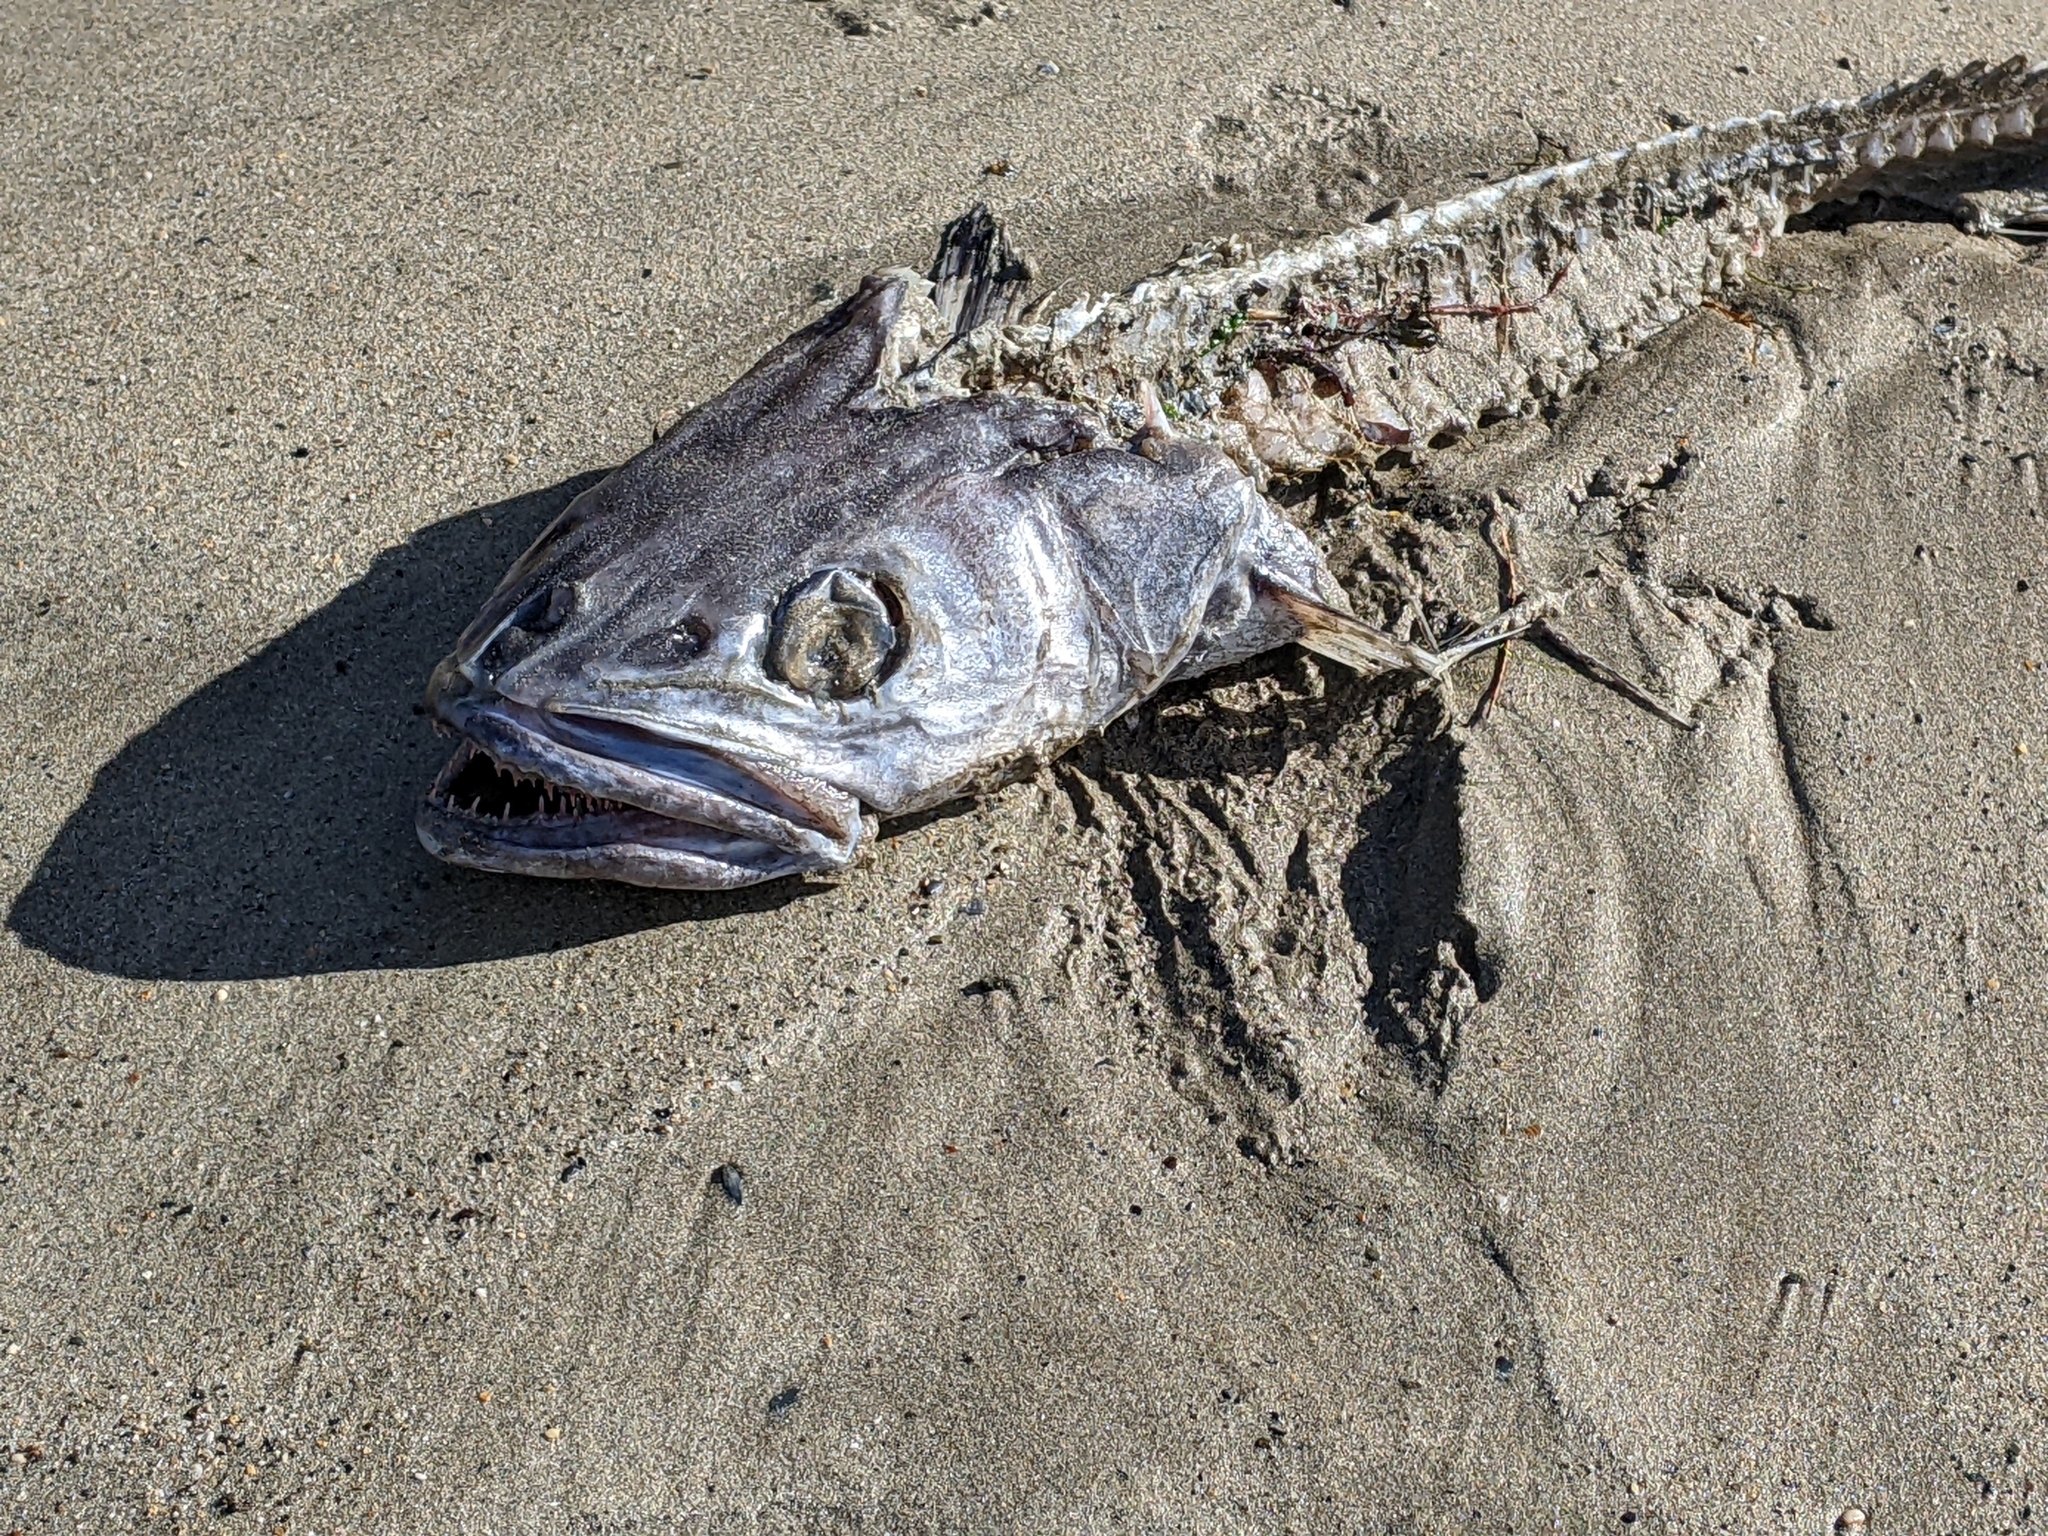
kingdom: Animalia
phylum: Chordata
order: Gadiformes
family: Merlucciidae
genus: Merluccius
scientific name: Merluccius merluccius
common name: European hake
